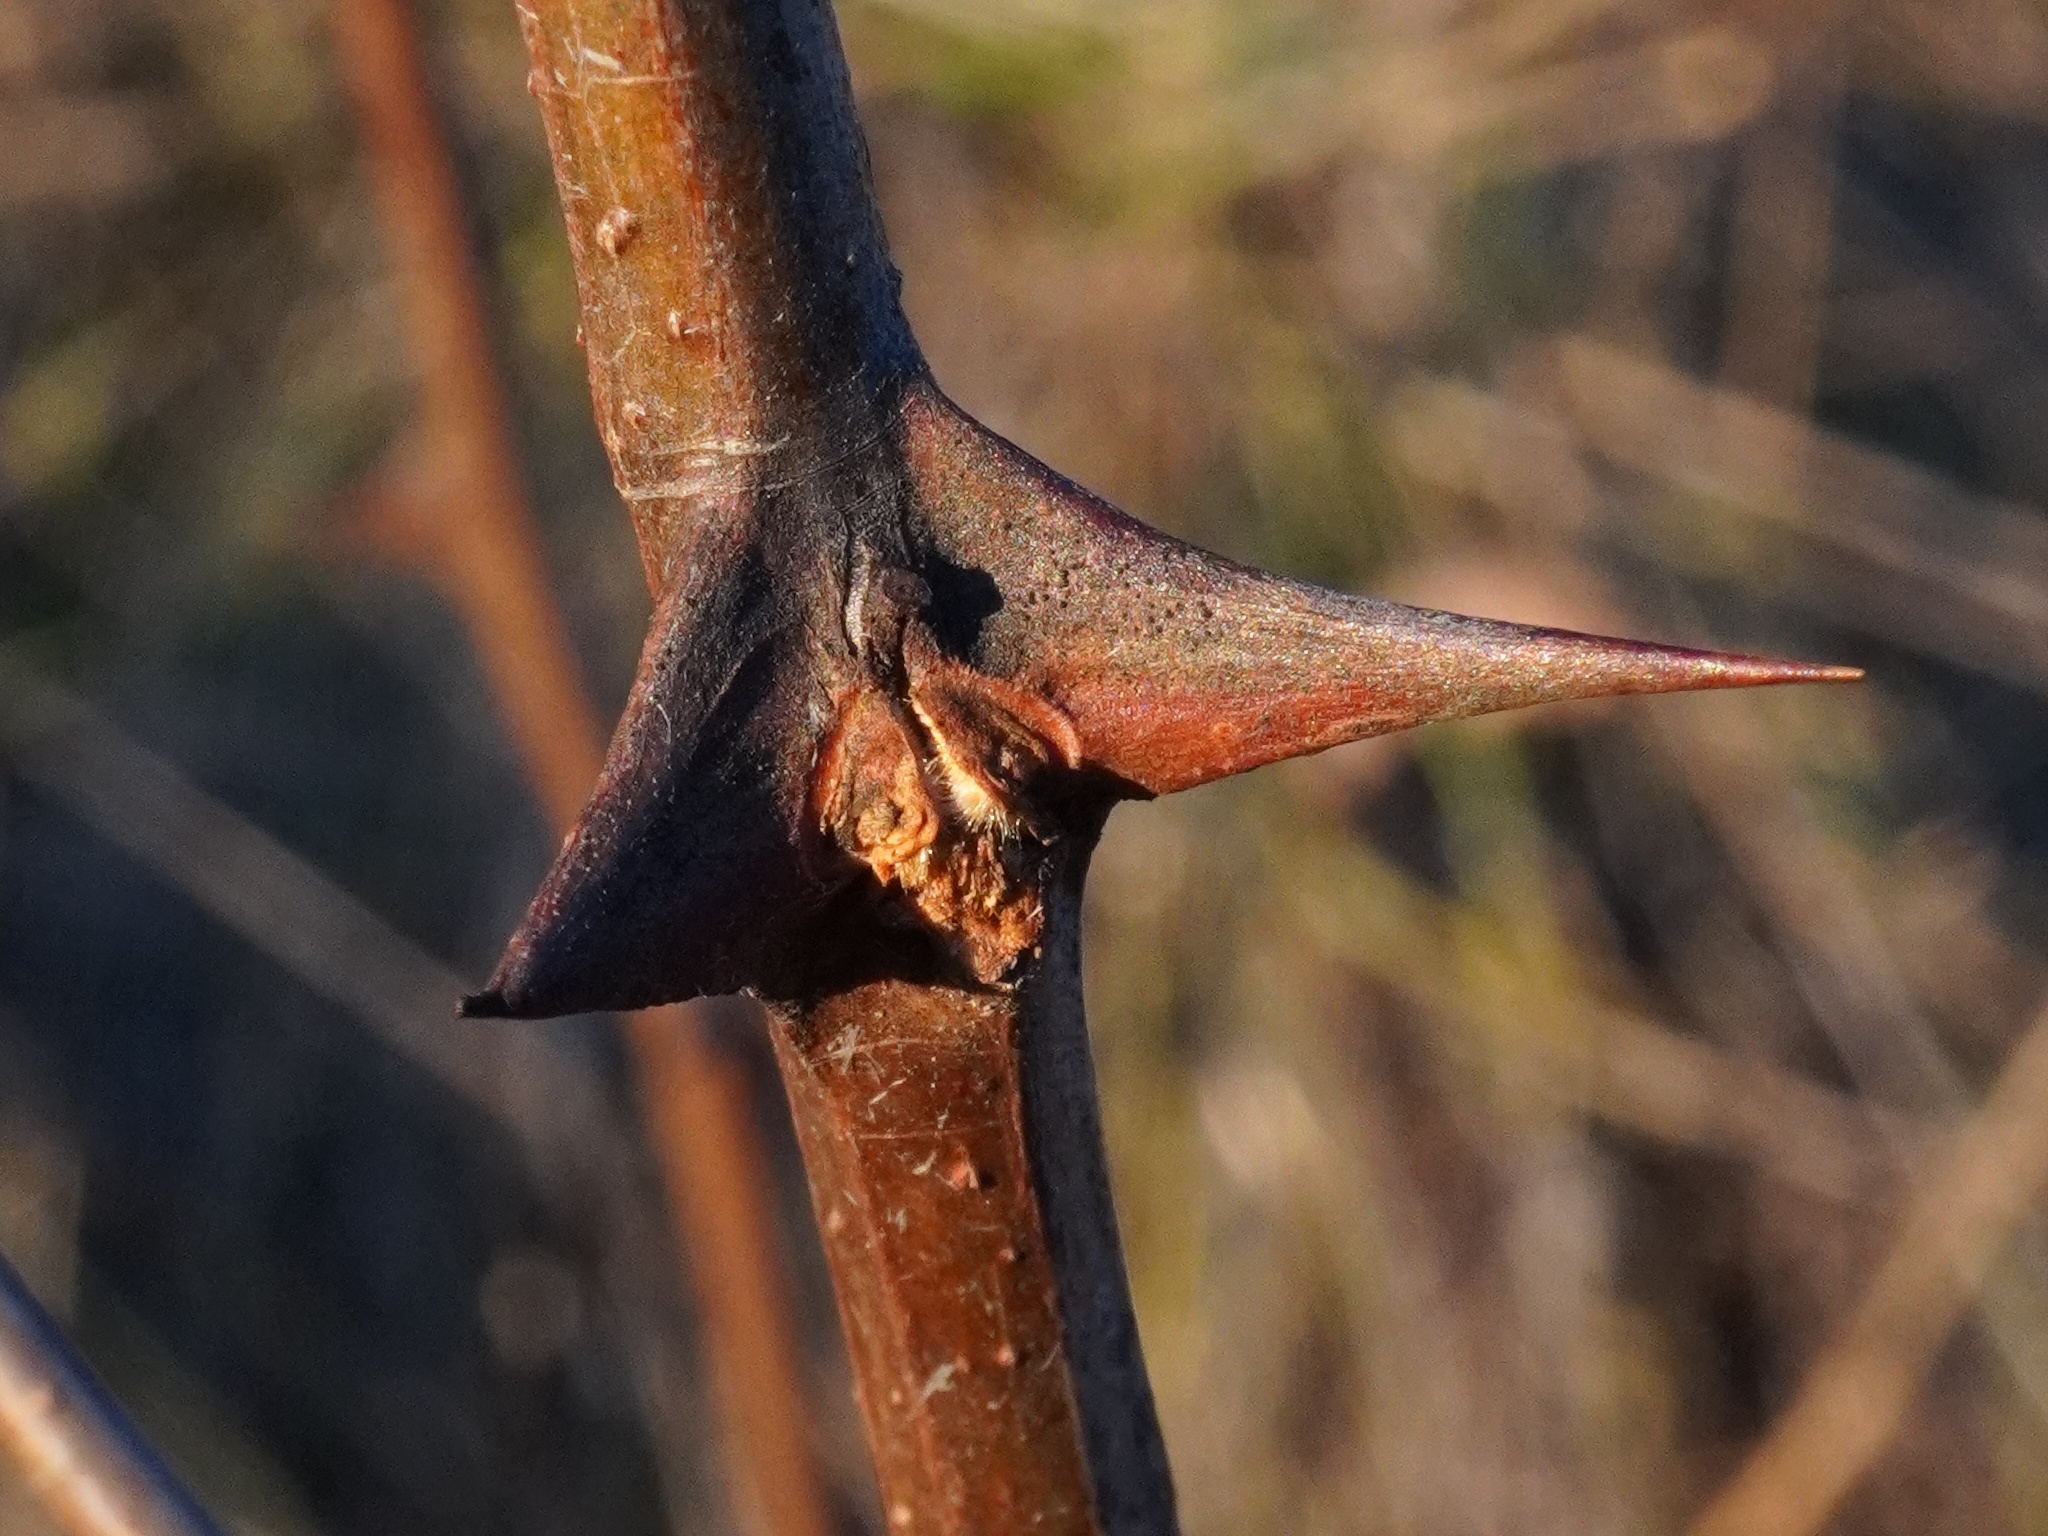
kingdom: Plantae
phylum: Tracheophyta
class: Magnoliopsida
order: Fabales
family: Fabaceae
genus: Robinia
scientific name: Robinia pseudoacacia
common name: Black locust
